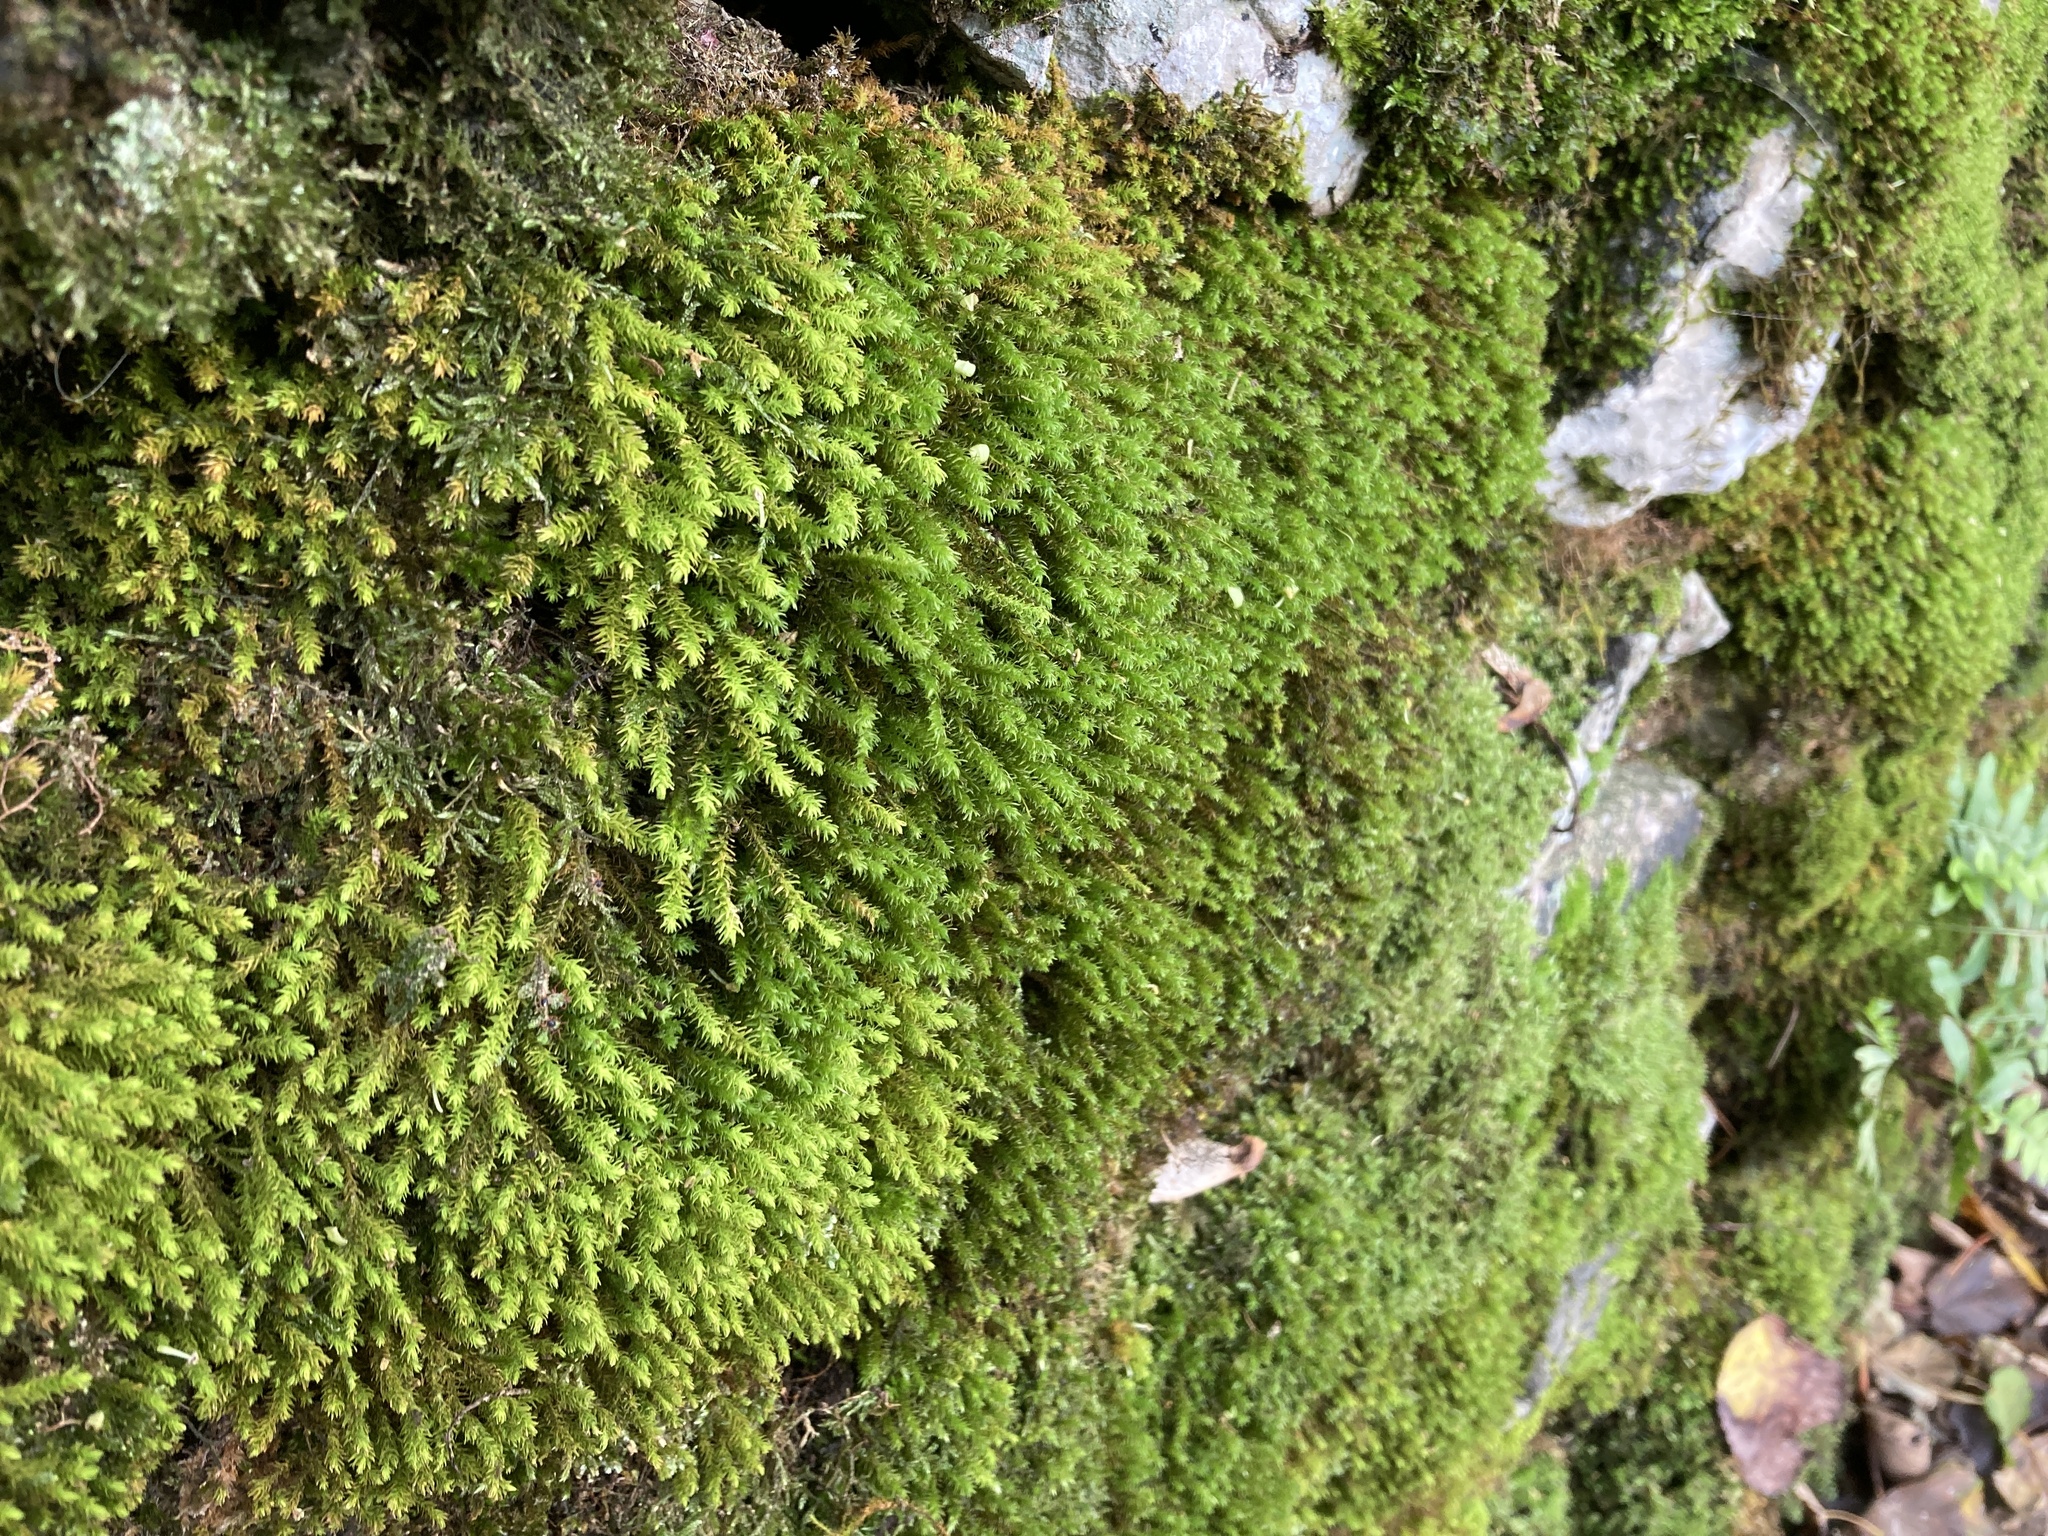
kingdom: Plantae
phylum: Bryophyta
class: Bryopsida
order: Hypnales
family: Anomodontaceae
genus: Anomodon
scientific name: Anomodon viticulosus
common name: Tall anomodon
